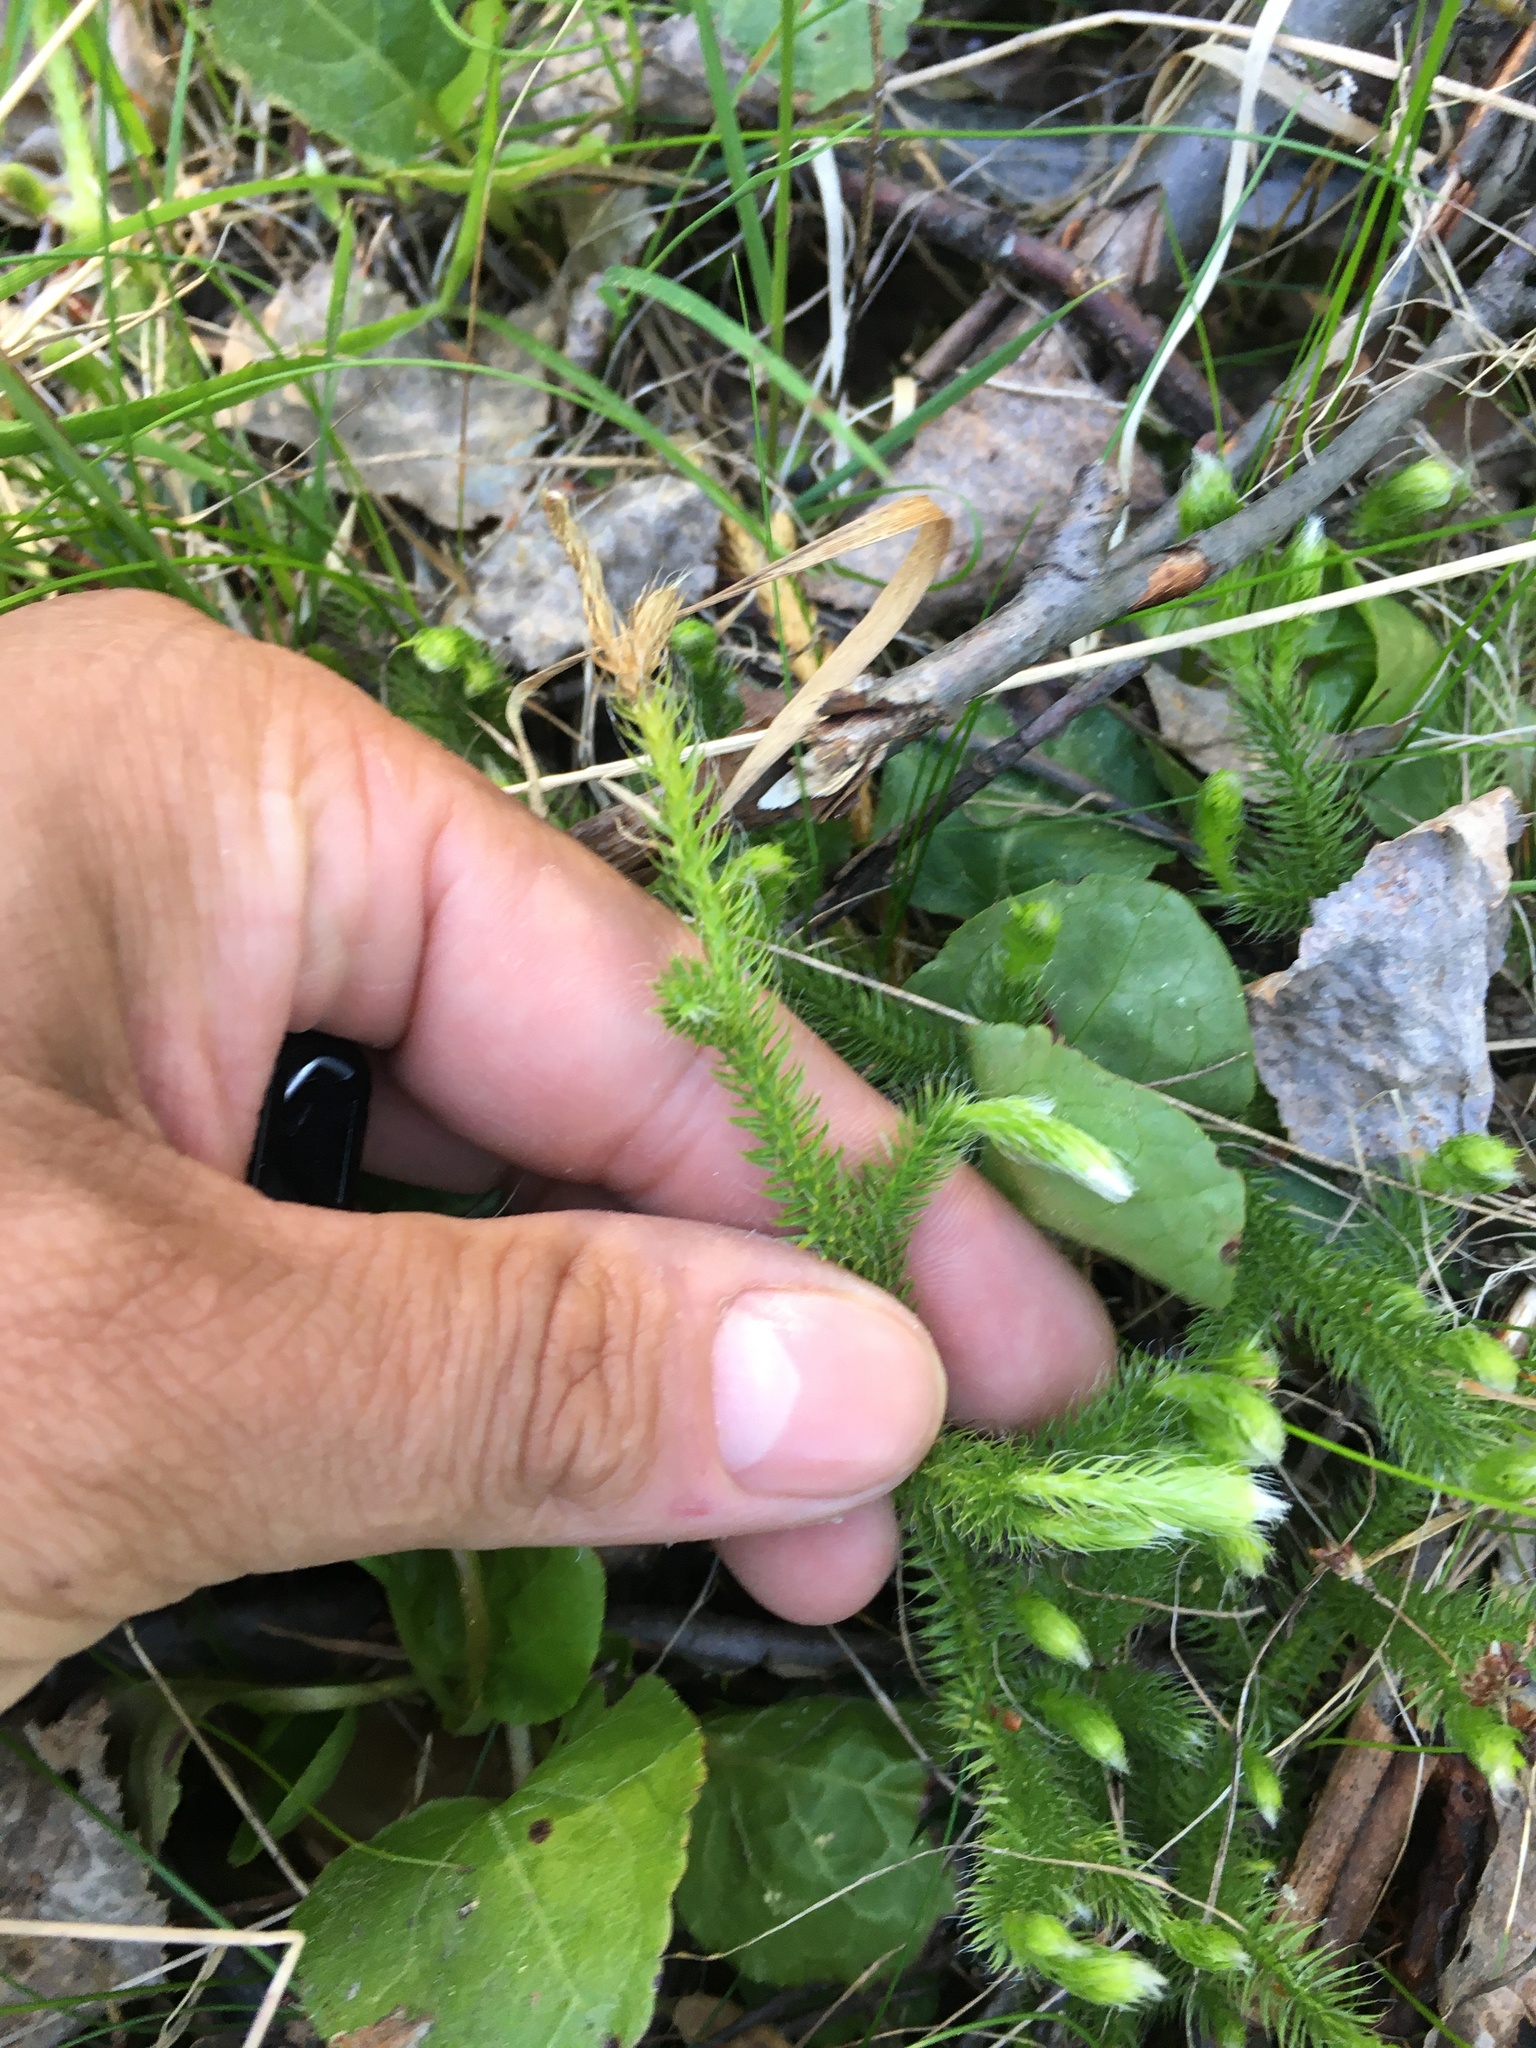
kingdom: Plantae
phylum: Tracheophyta
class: Lycopodiopsida
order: Lycopodiales
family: Lycopodiaceae
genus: Lycopodium
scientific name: Lycopodium clavatum
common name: Stag's-horn clubmoss
